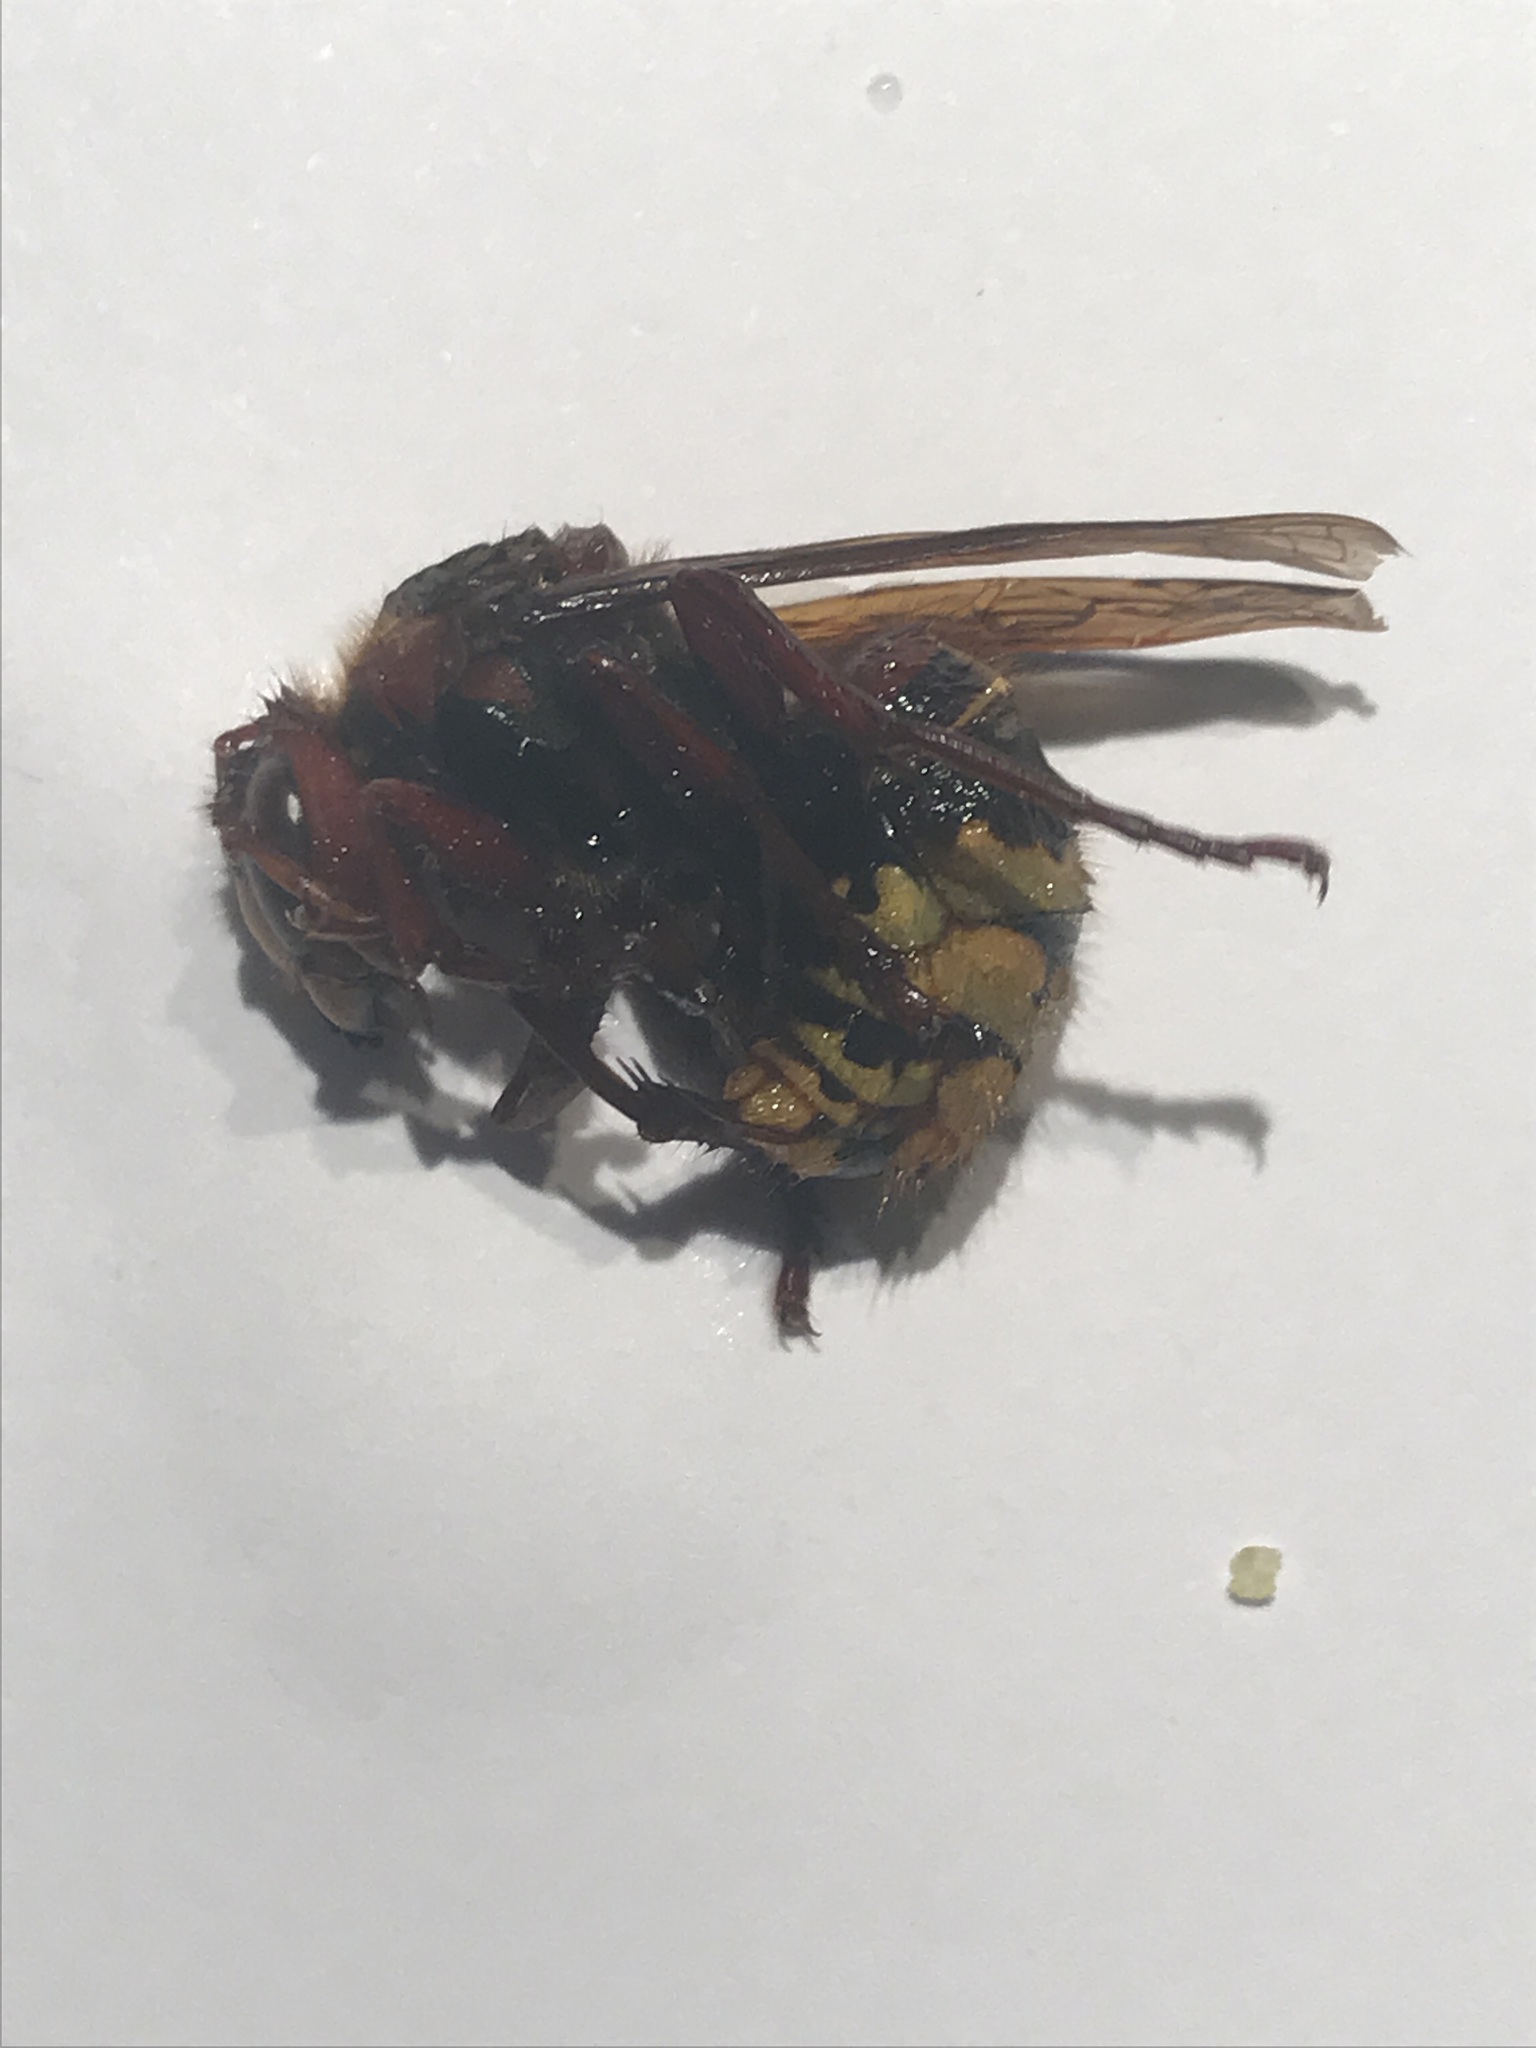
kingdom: Animalia
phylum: Arthropoda
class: Insecta
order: Hymenoptera
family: Vespidae
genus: Vespa
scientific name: Vespa crabro
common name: Hornet
